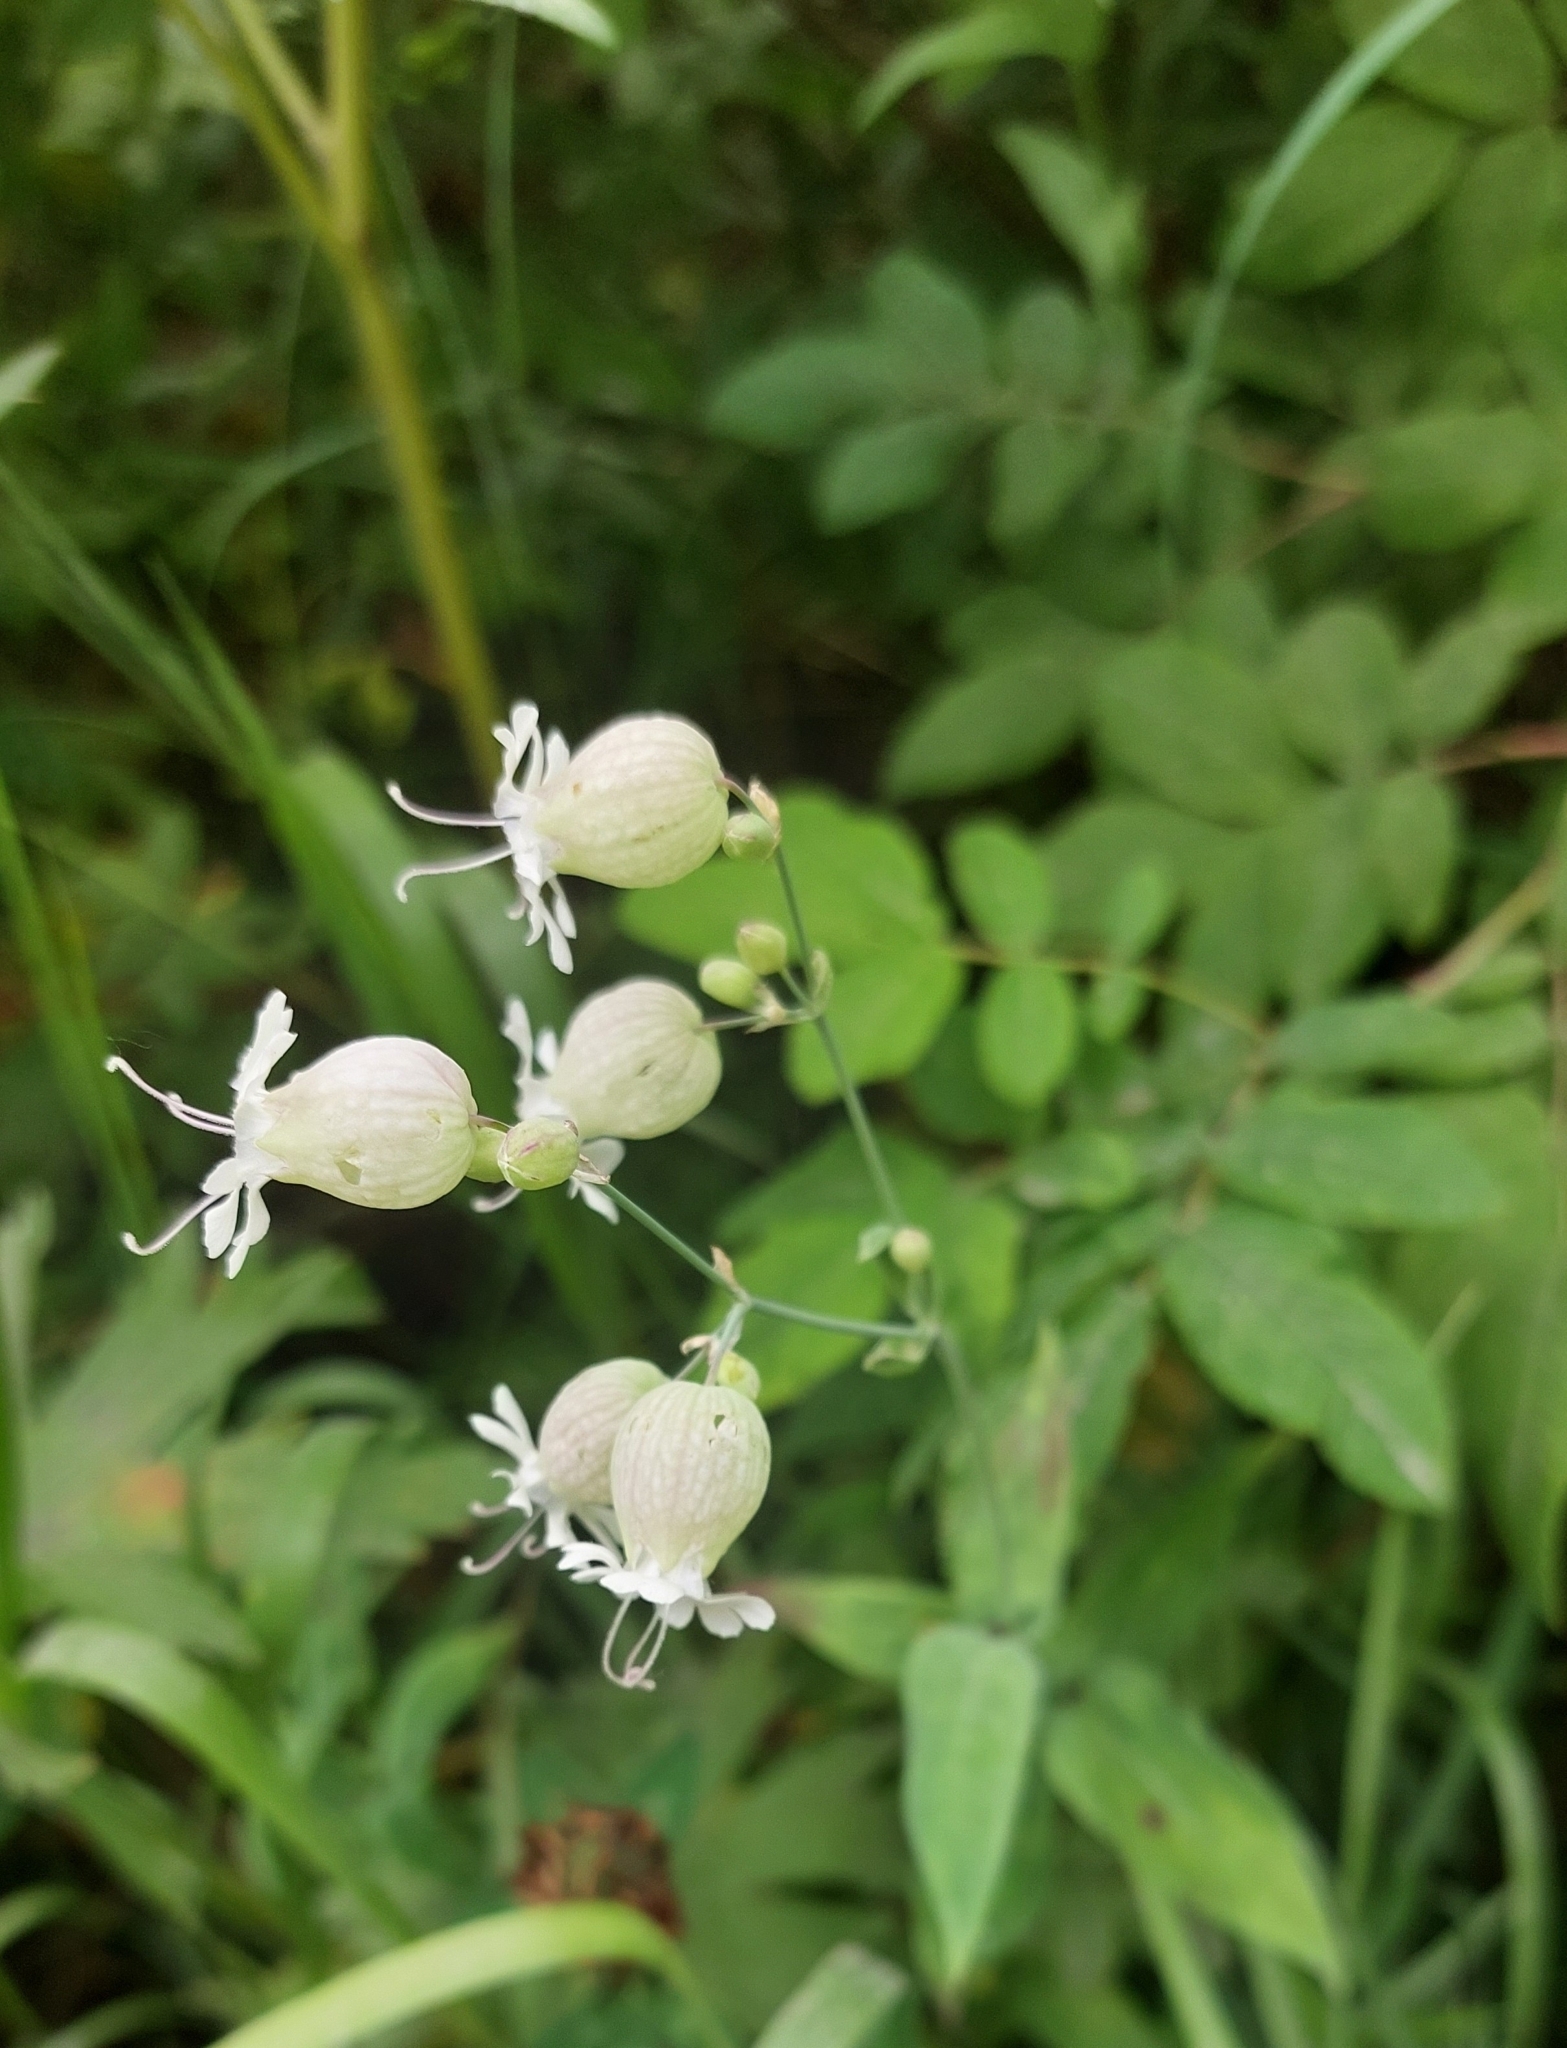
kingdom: Plantae
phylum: Tracheophyta
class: Magnoliopsida
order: Caryophyllales
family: Caryophyllaceae
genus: Silene
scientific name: Silene vulgaris
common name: Bladder campion
